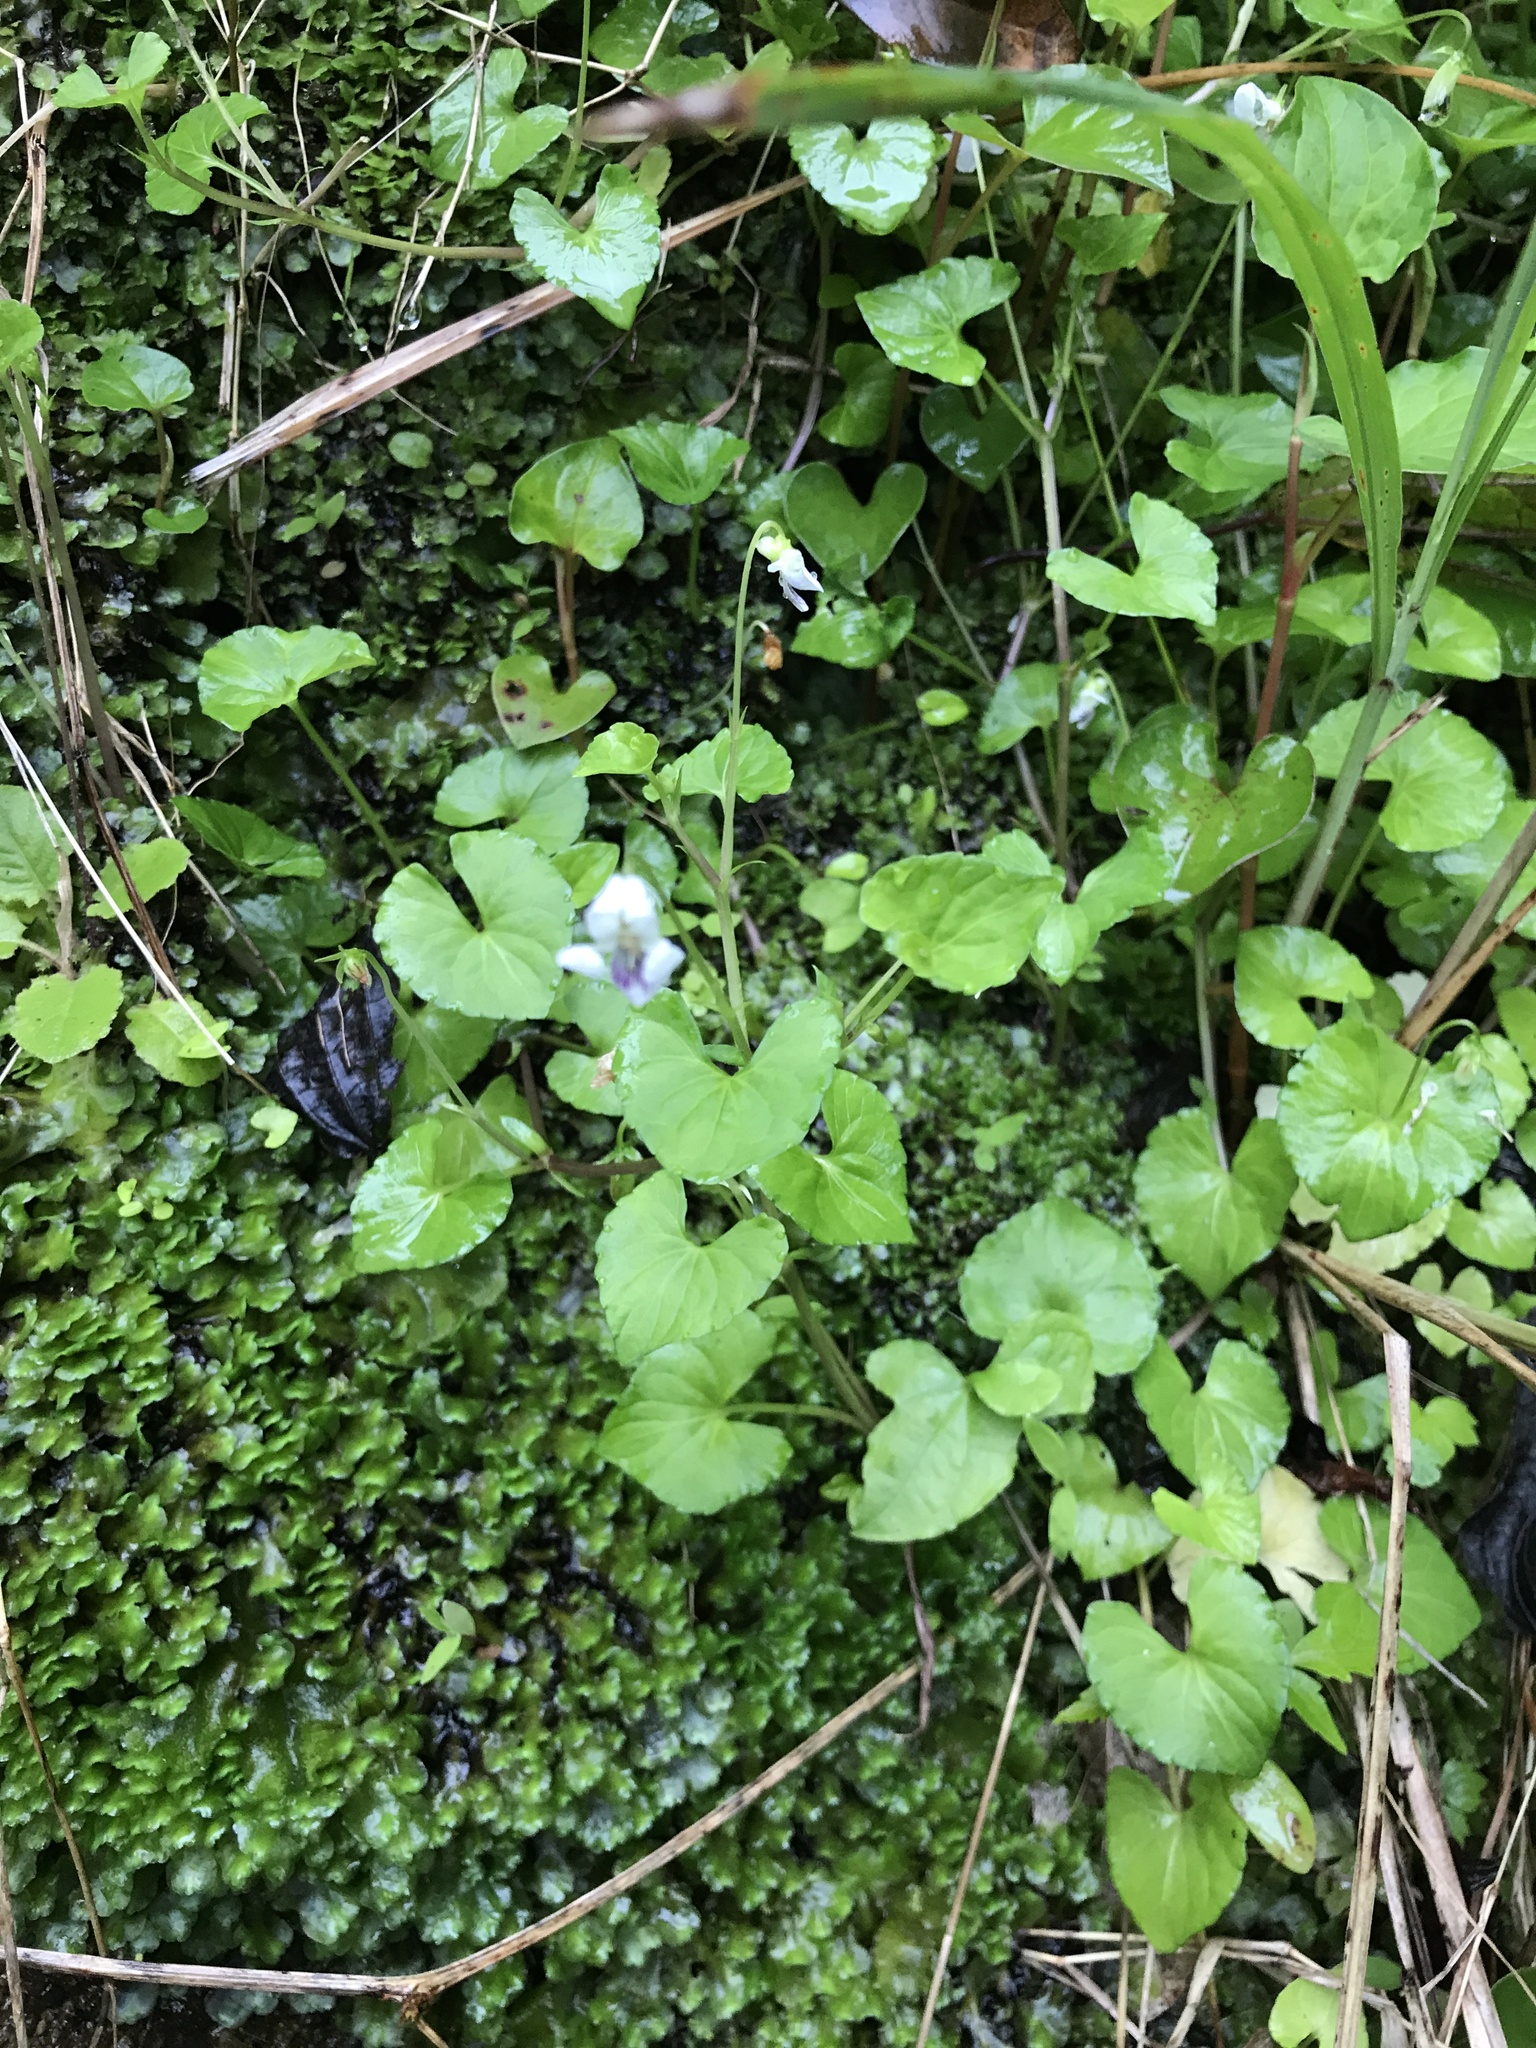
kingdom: Plantae
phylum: Tracheophyta
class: Magnoliopsida
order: Malpighiales
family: Violaceae
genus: Viola
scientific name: Viola
